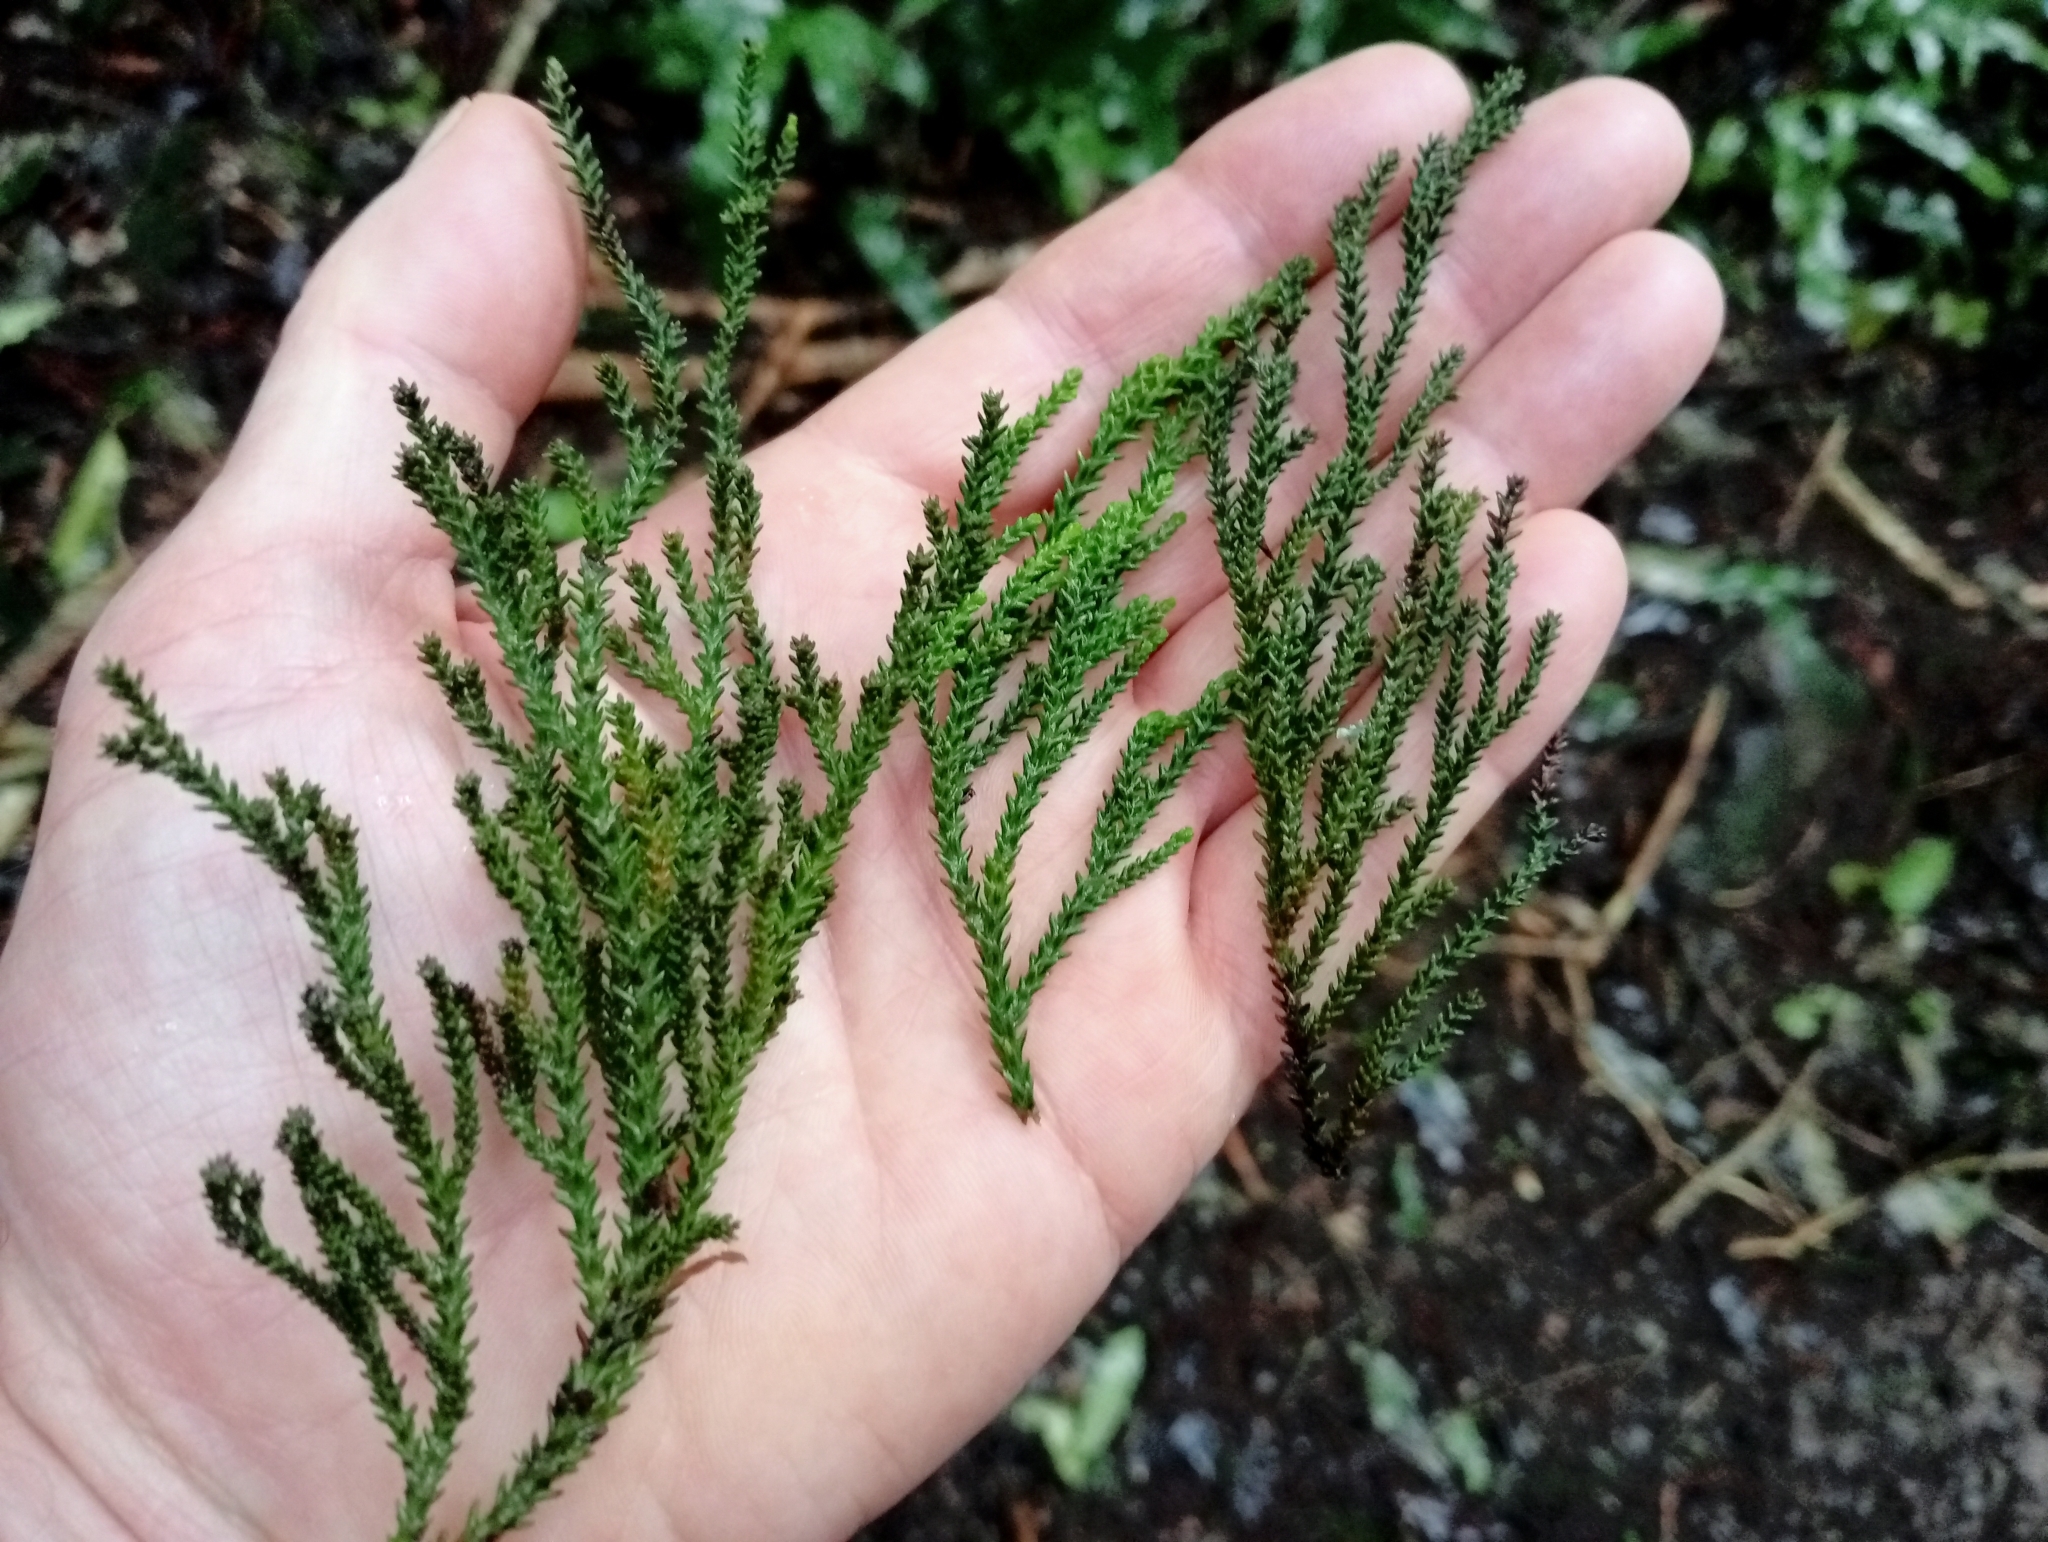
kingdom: Plantae
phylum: Tracheophyta
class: Pinopsida
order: Pinales
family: Podocarpaceae
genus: Dacrydium
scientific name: Dacrydium cupressinum
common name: Red pine
